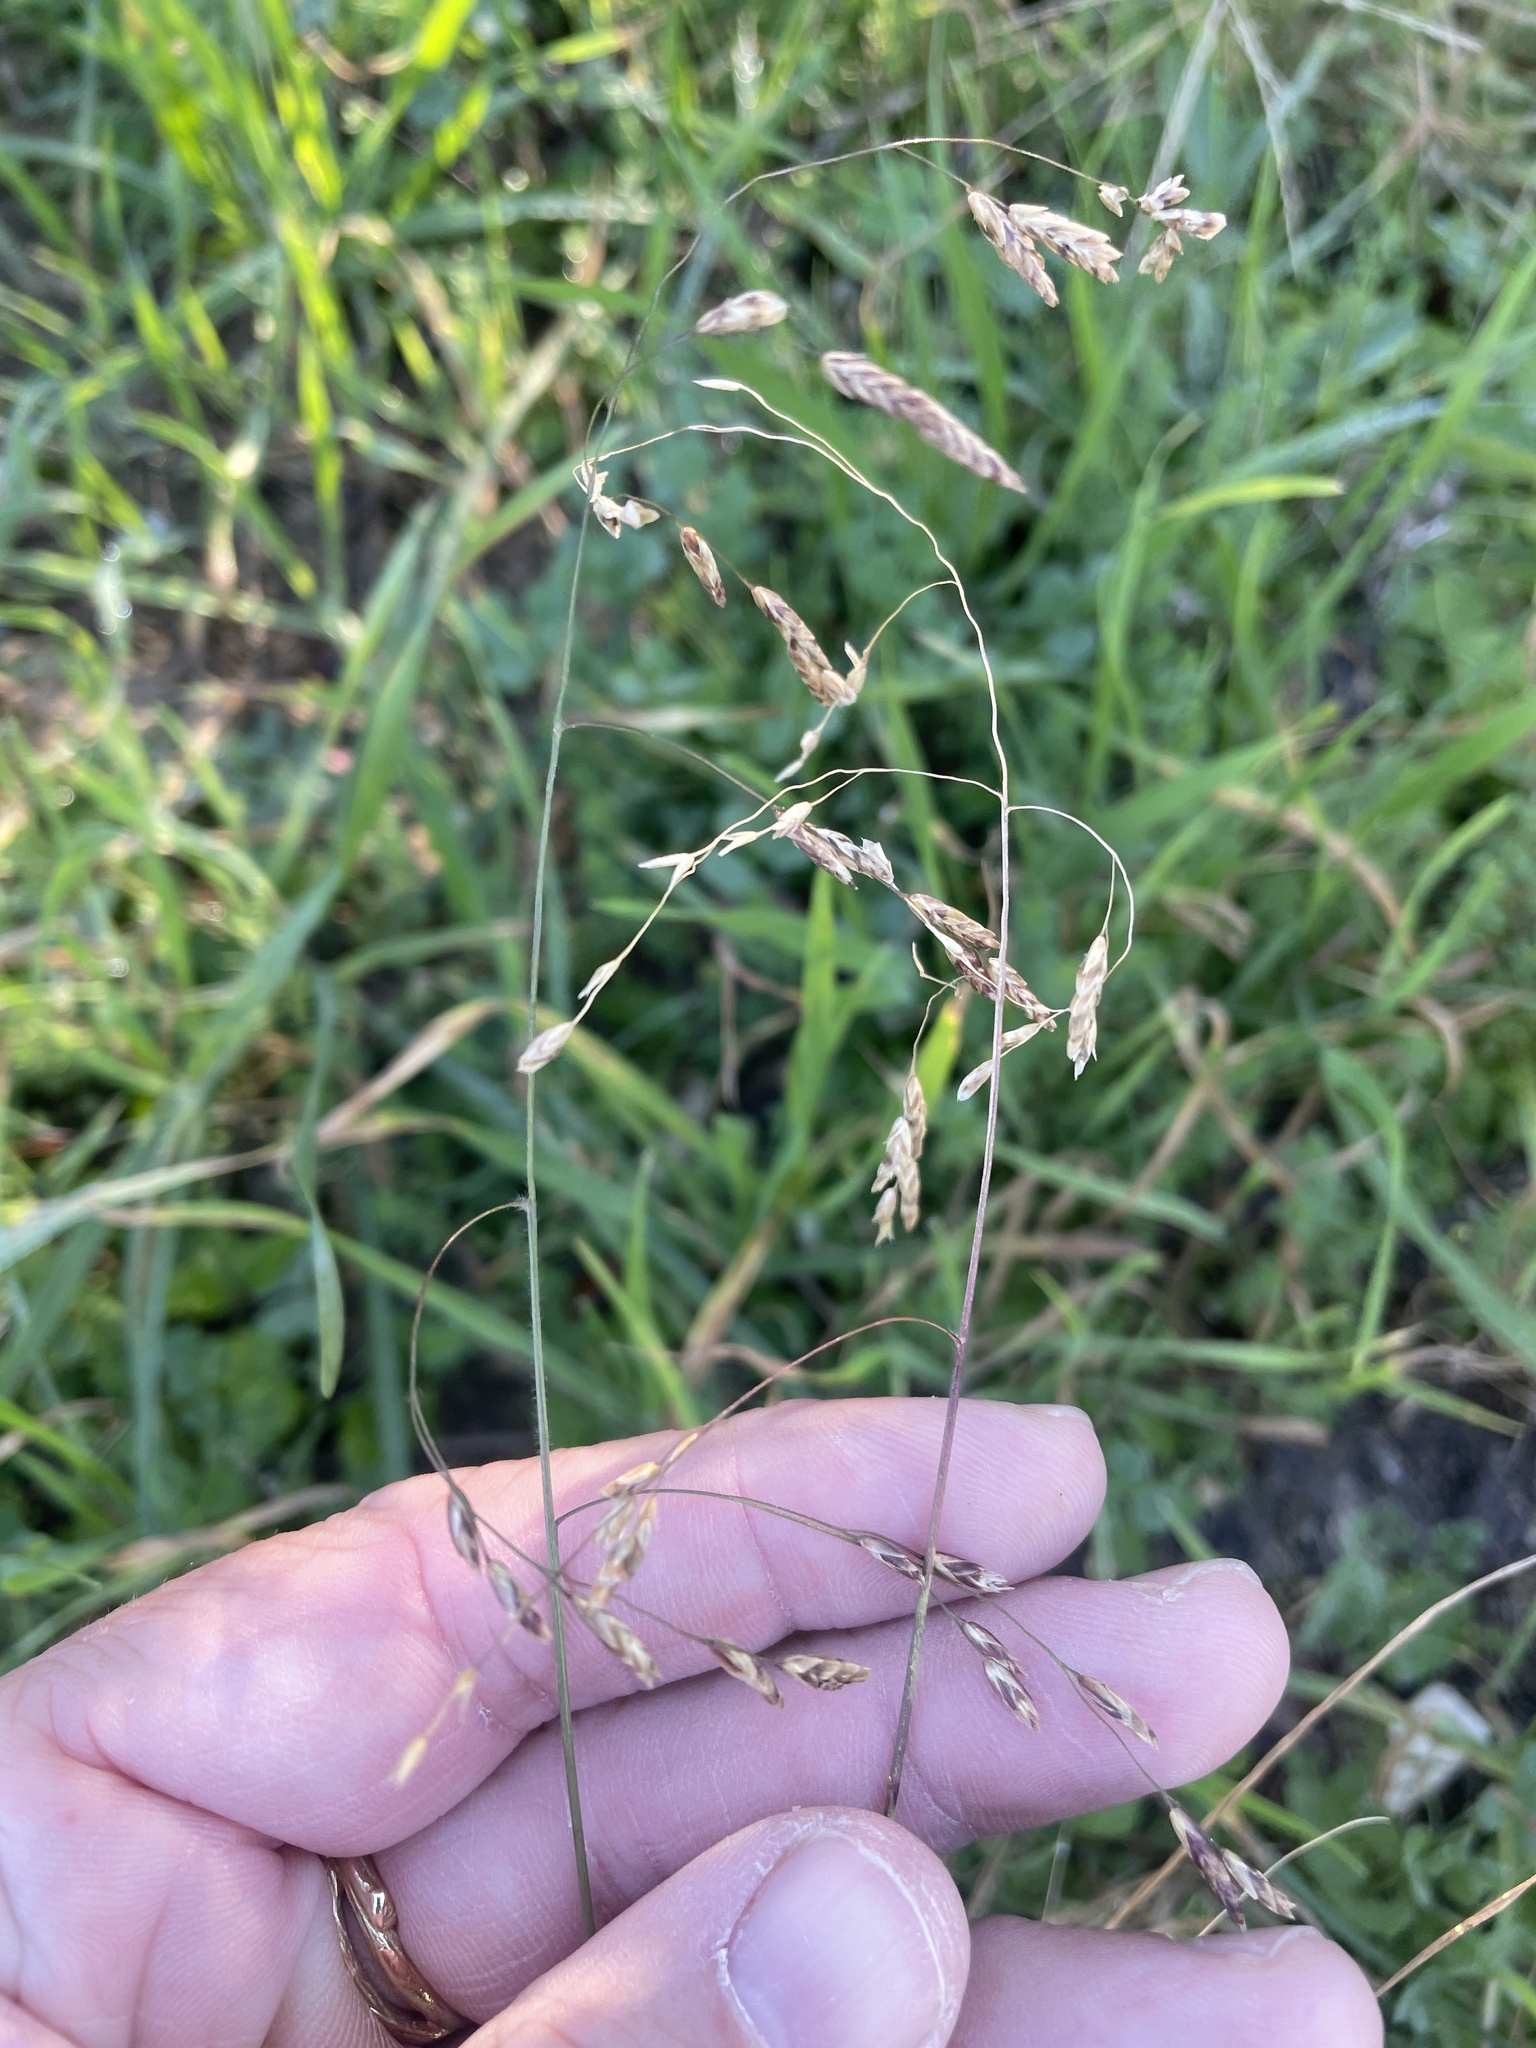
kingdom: Plantae
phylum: Tracheophyta
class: Liliopsida
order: Poales
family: Poaceae
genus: Tridens
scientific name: Tridens texanus
